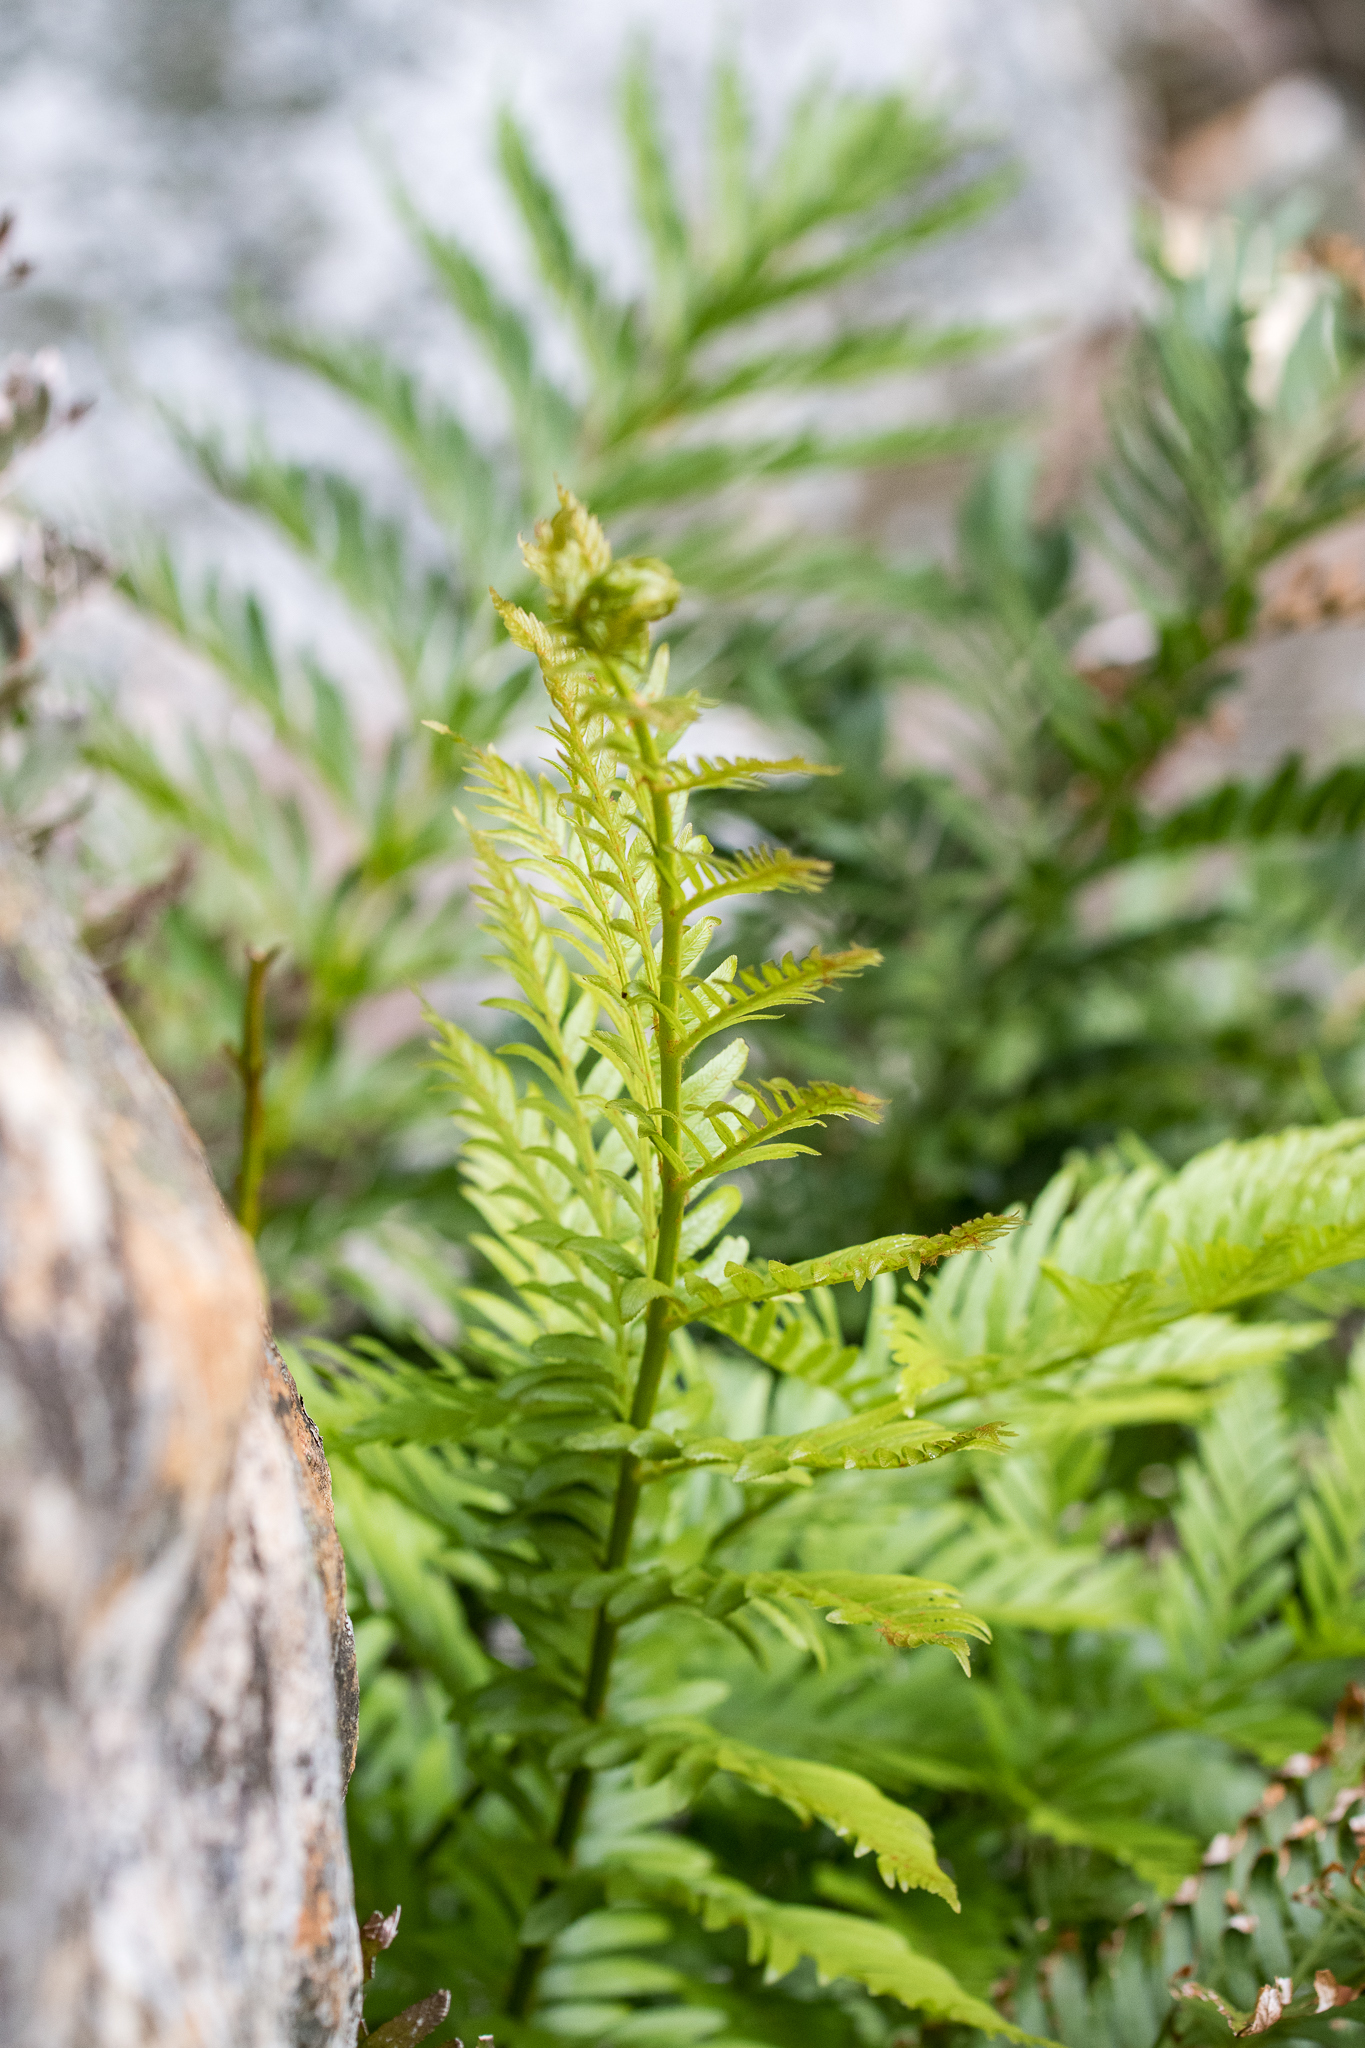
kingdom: Plantae
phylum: Tracheophyta
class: Polypodiopsida
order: Osmundales
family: Osmundaceae
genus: Todea
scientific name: Todea barbara
